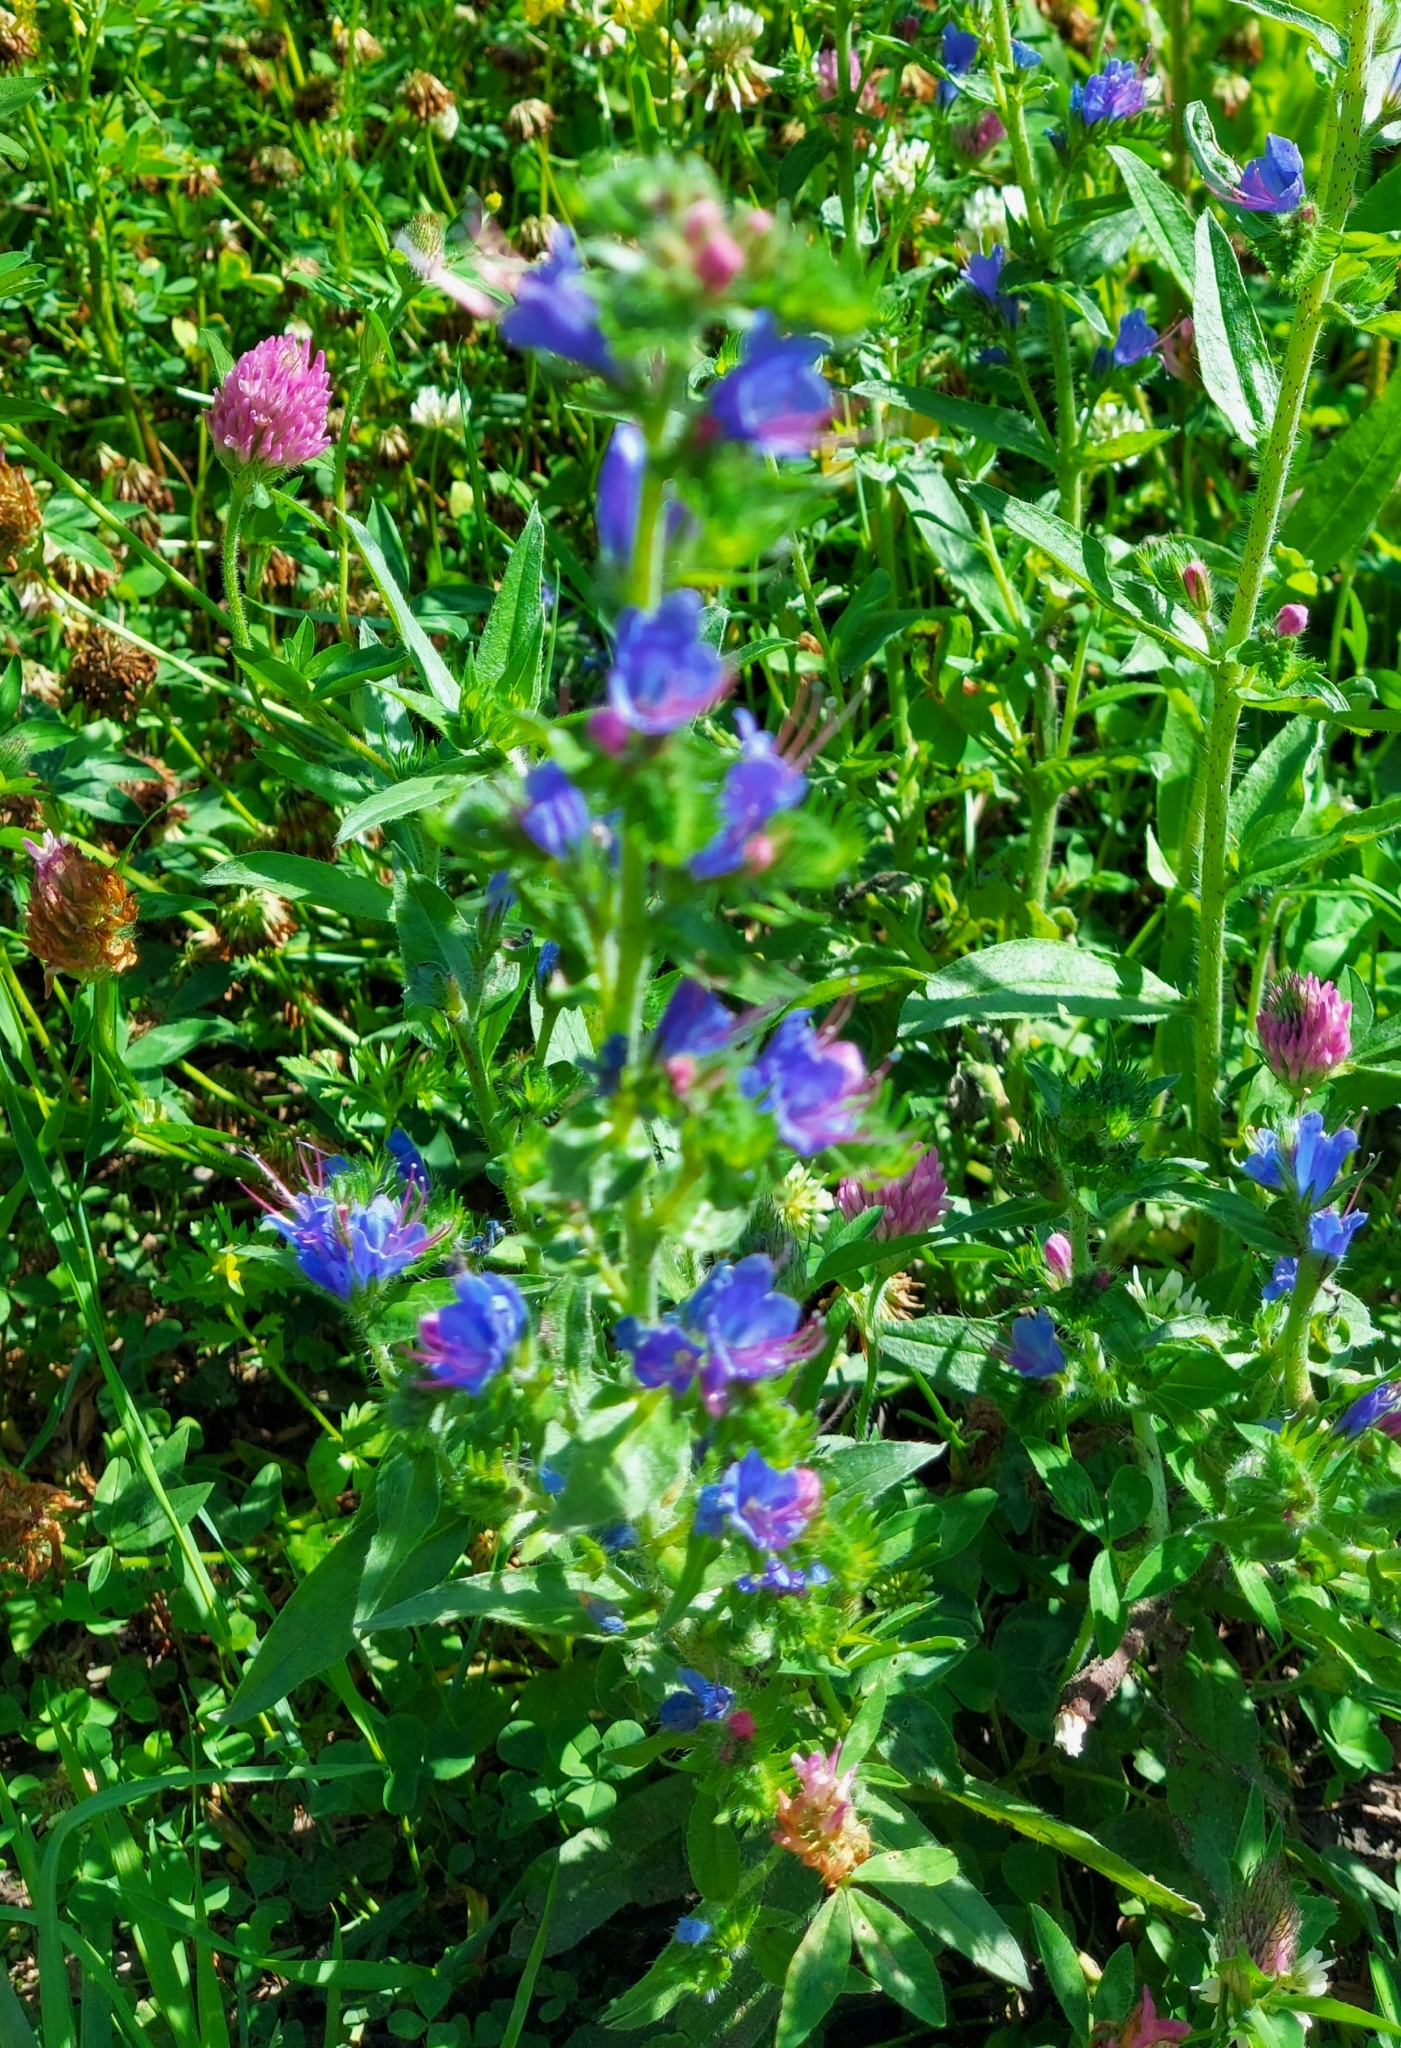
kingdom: Plantae
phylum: Tracheophyta
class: Magnoliopsida
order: Boraginales
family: Boraginaceae
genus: Echium
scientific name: Echium vulgare
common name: Common viper's bugloss
